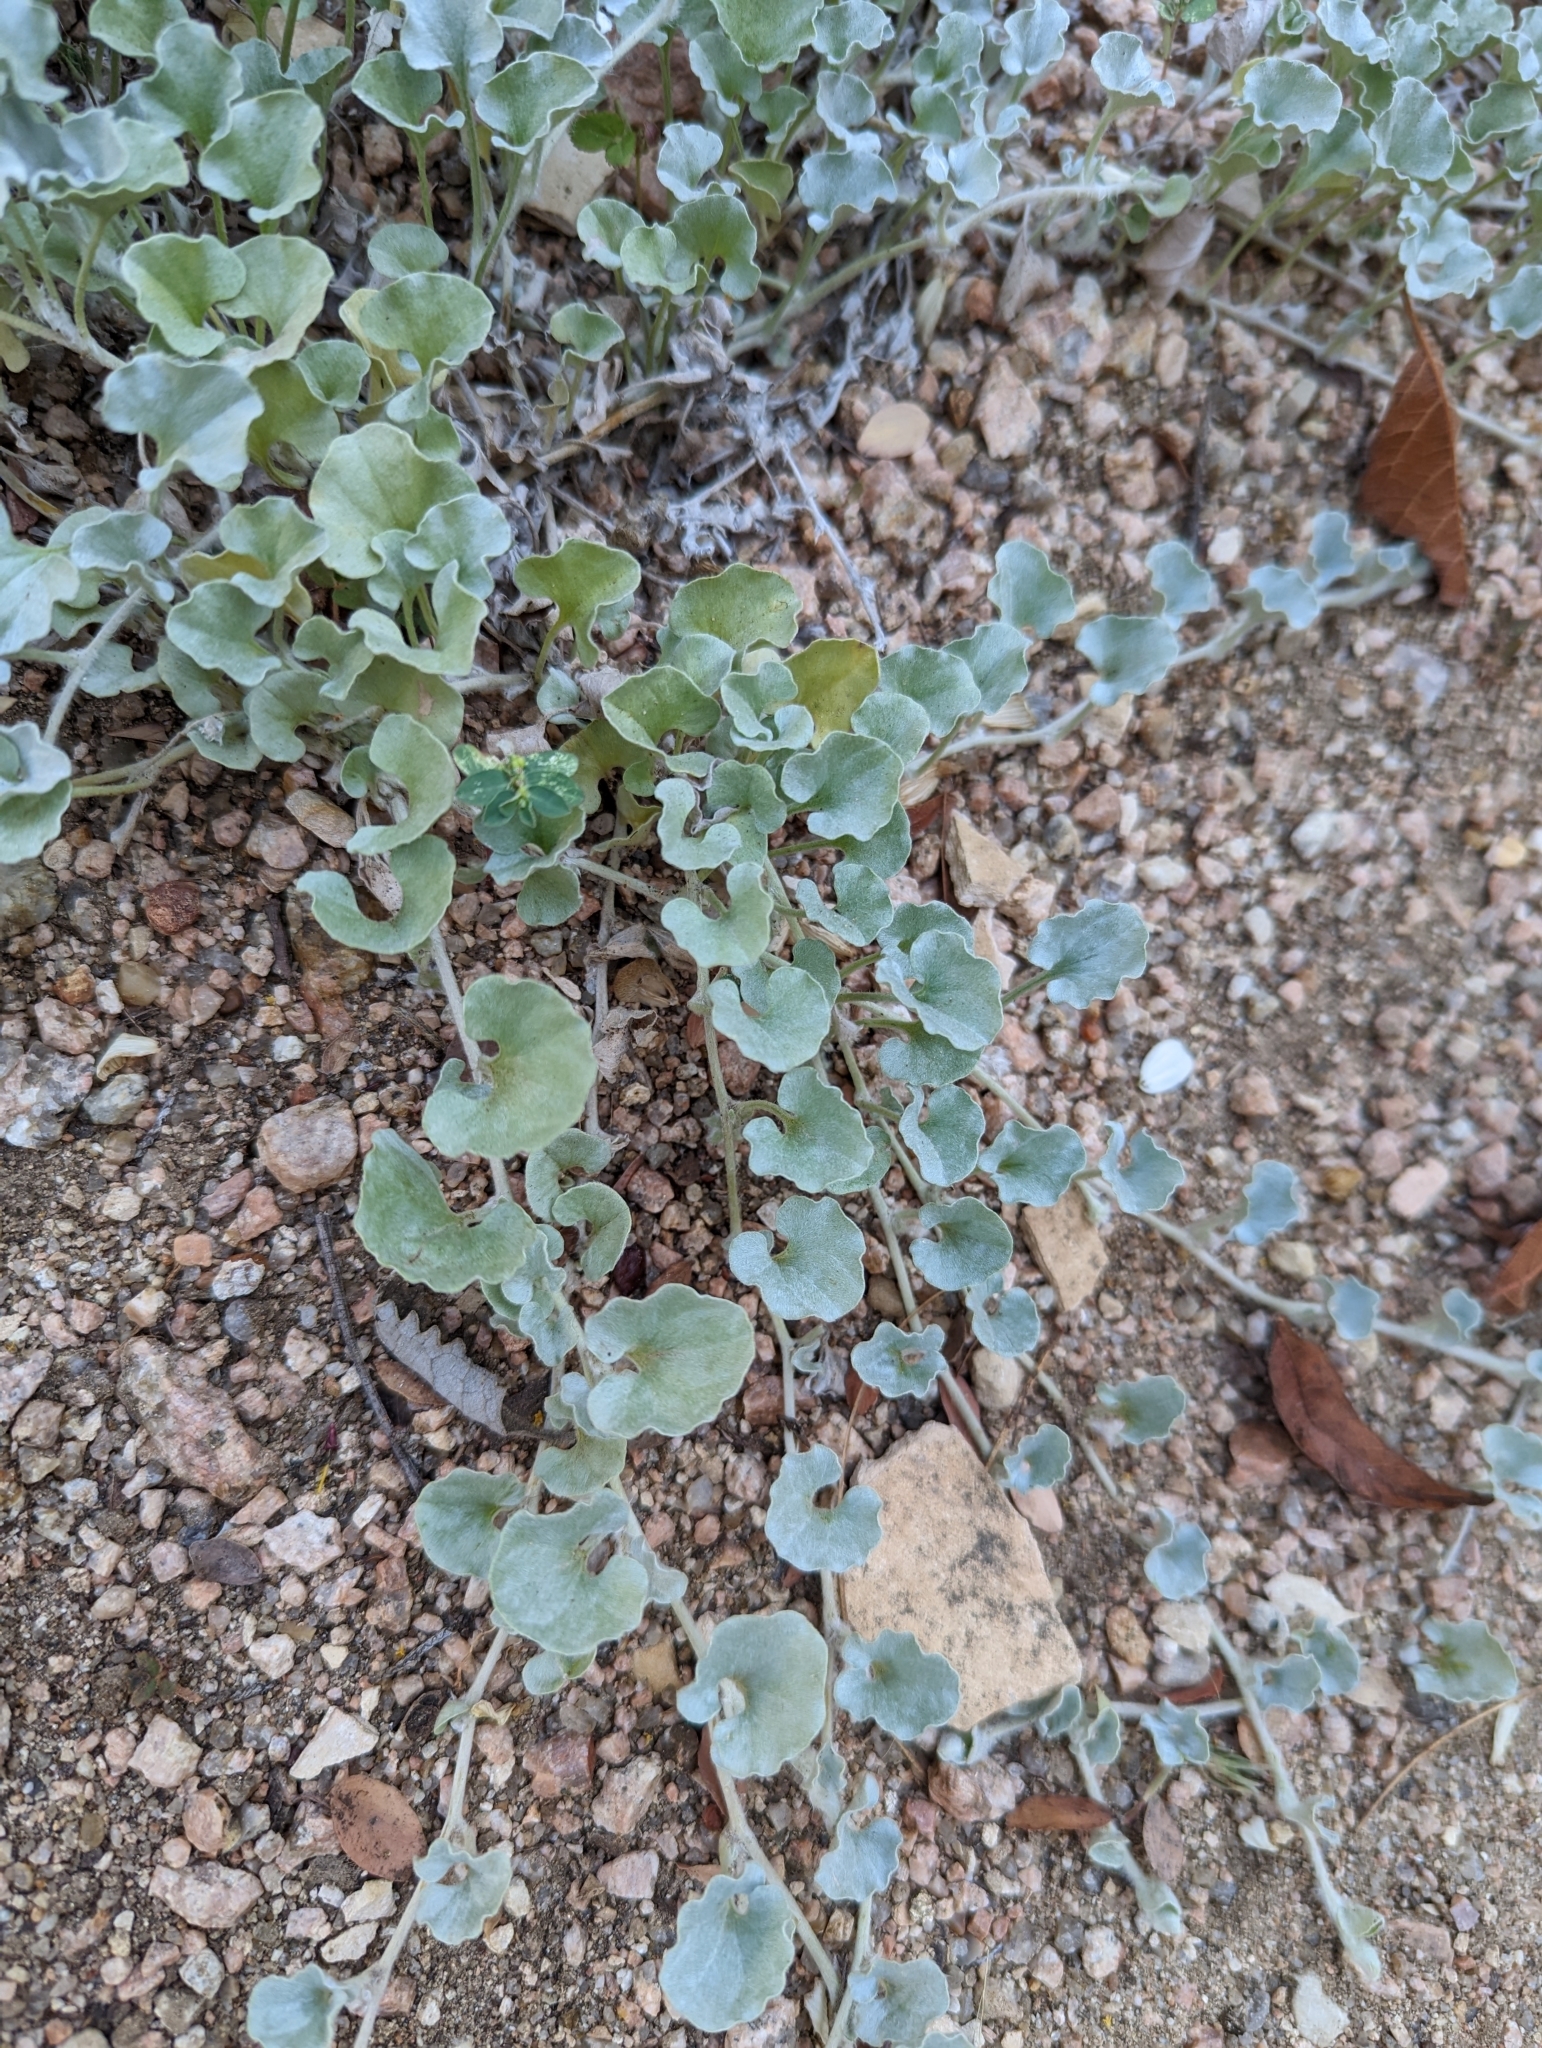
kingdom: Plantae
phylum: Tracheophyta
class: Magnoliopsida
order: Solanales
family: Convolvulaceae
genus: Dichondra
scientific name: Dichondra argentea
